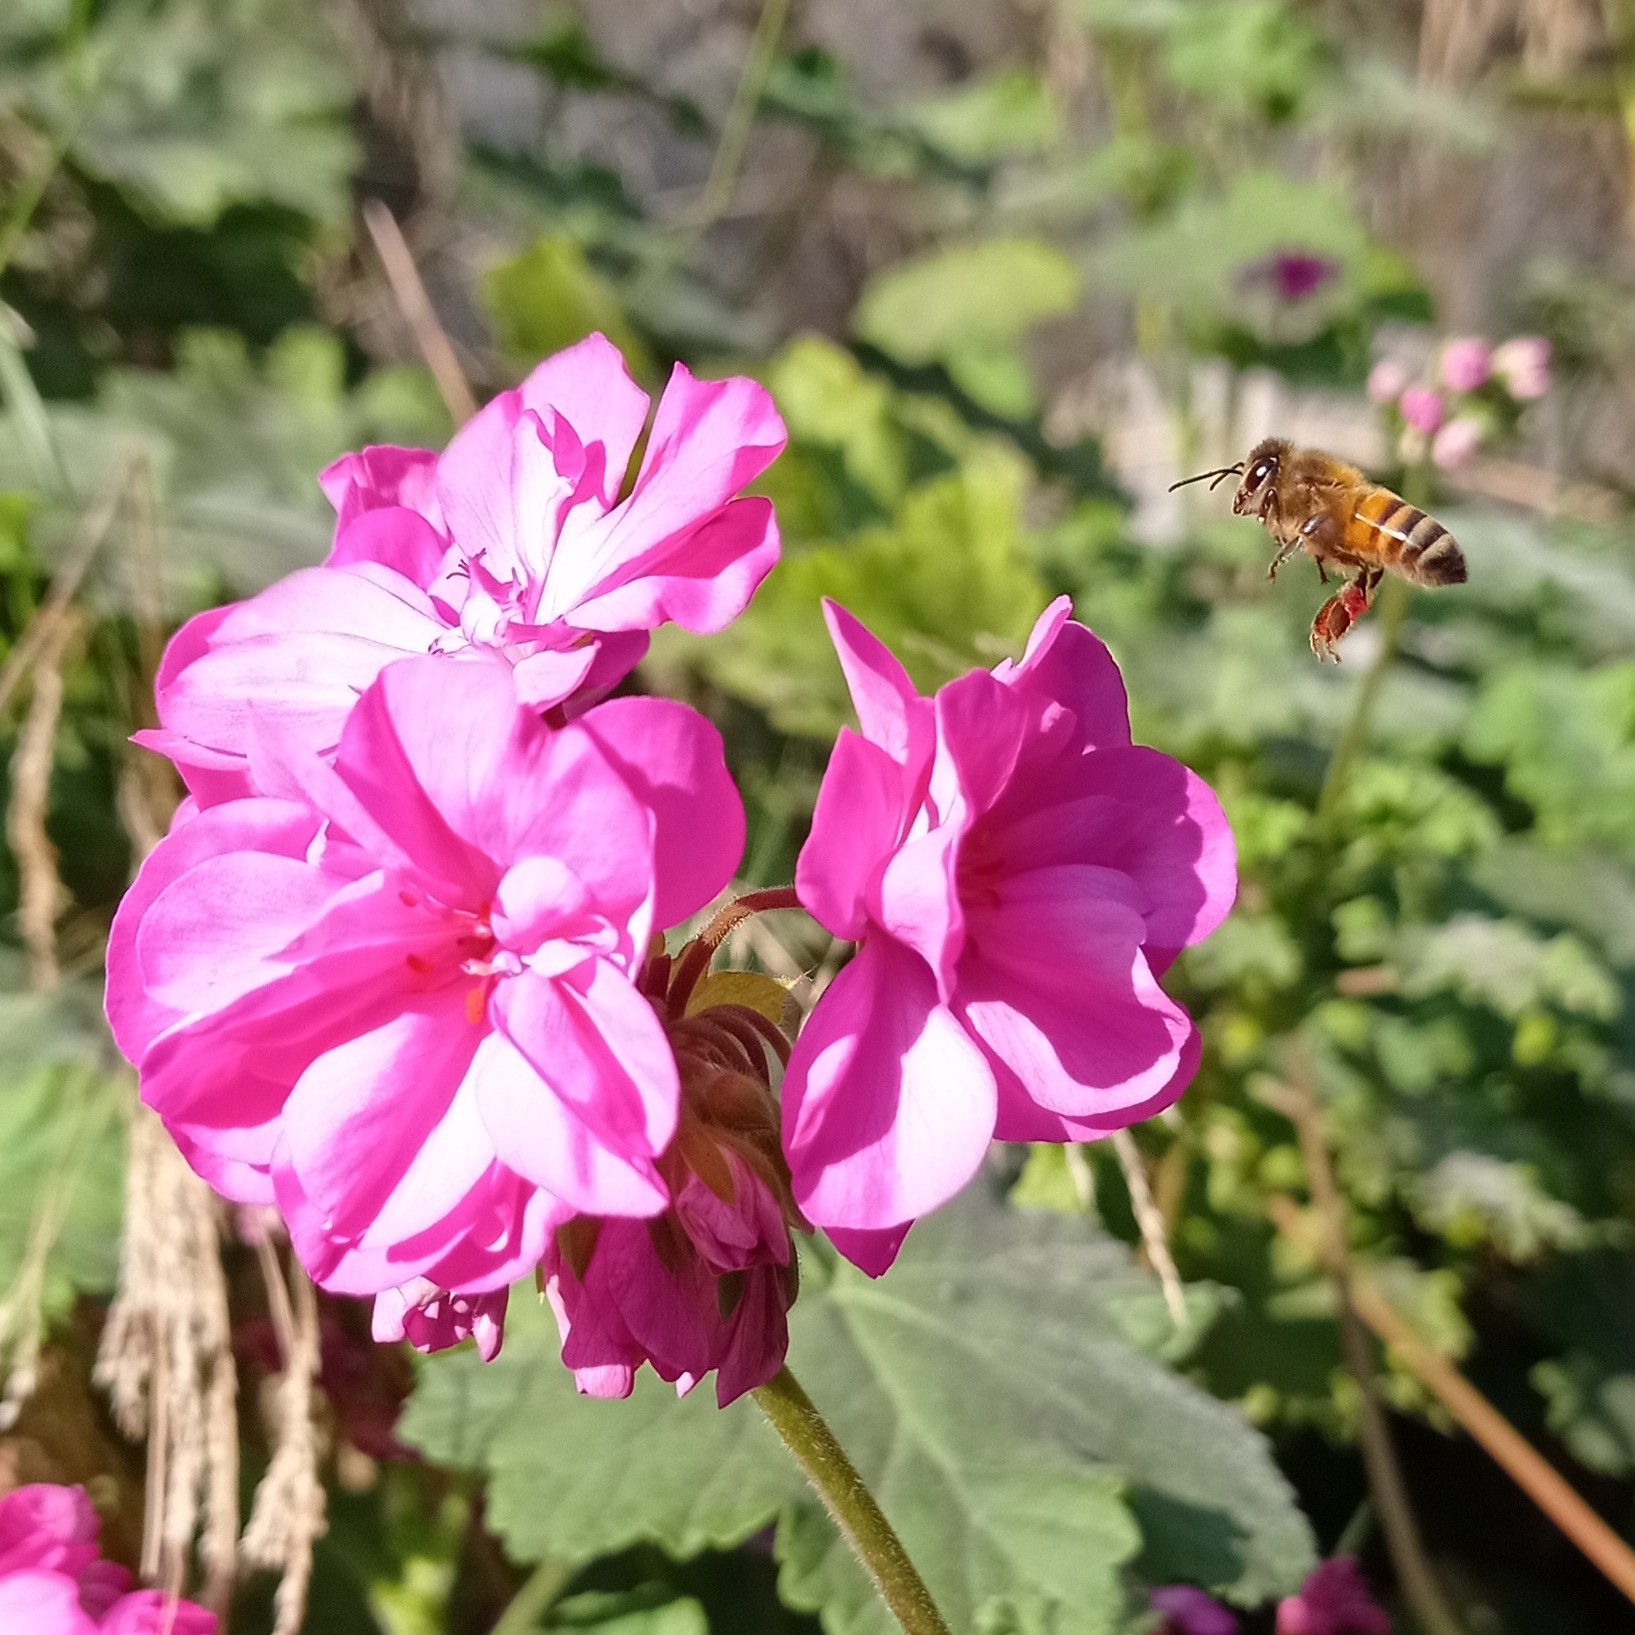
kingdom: Animalia
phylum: Arthropoda
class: Insecta
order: Hymenoptera
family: Apidae
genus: Apis
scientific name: Apis mellifera
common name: Honey bee
